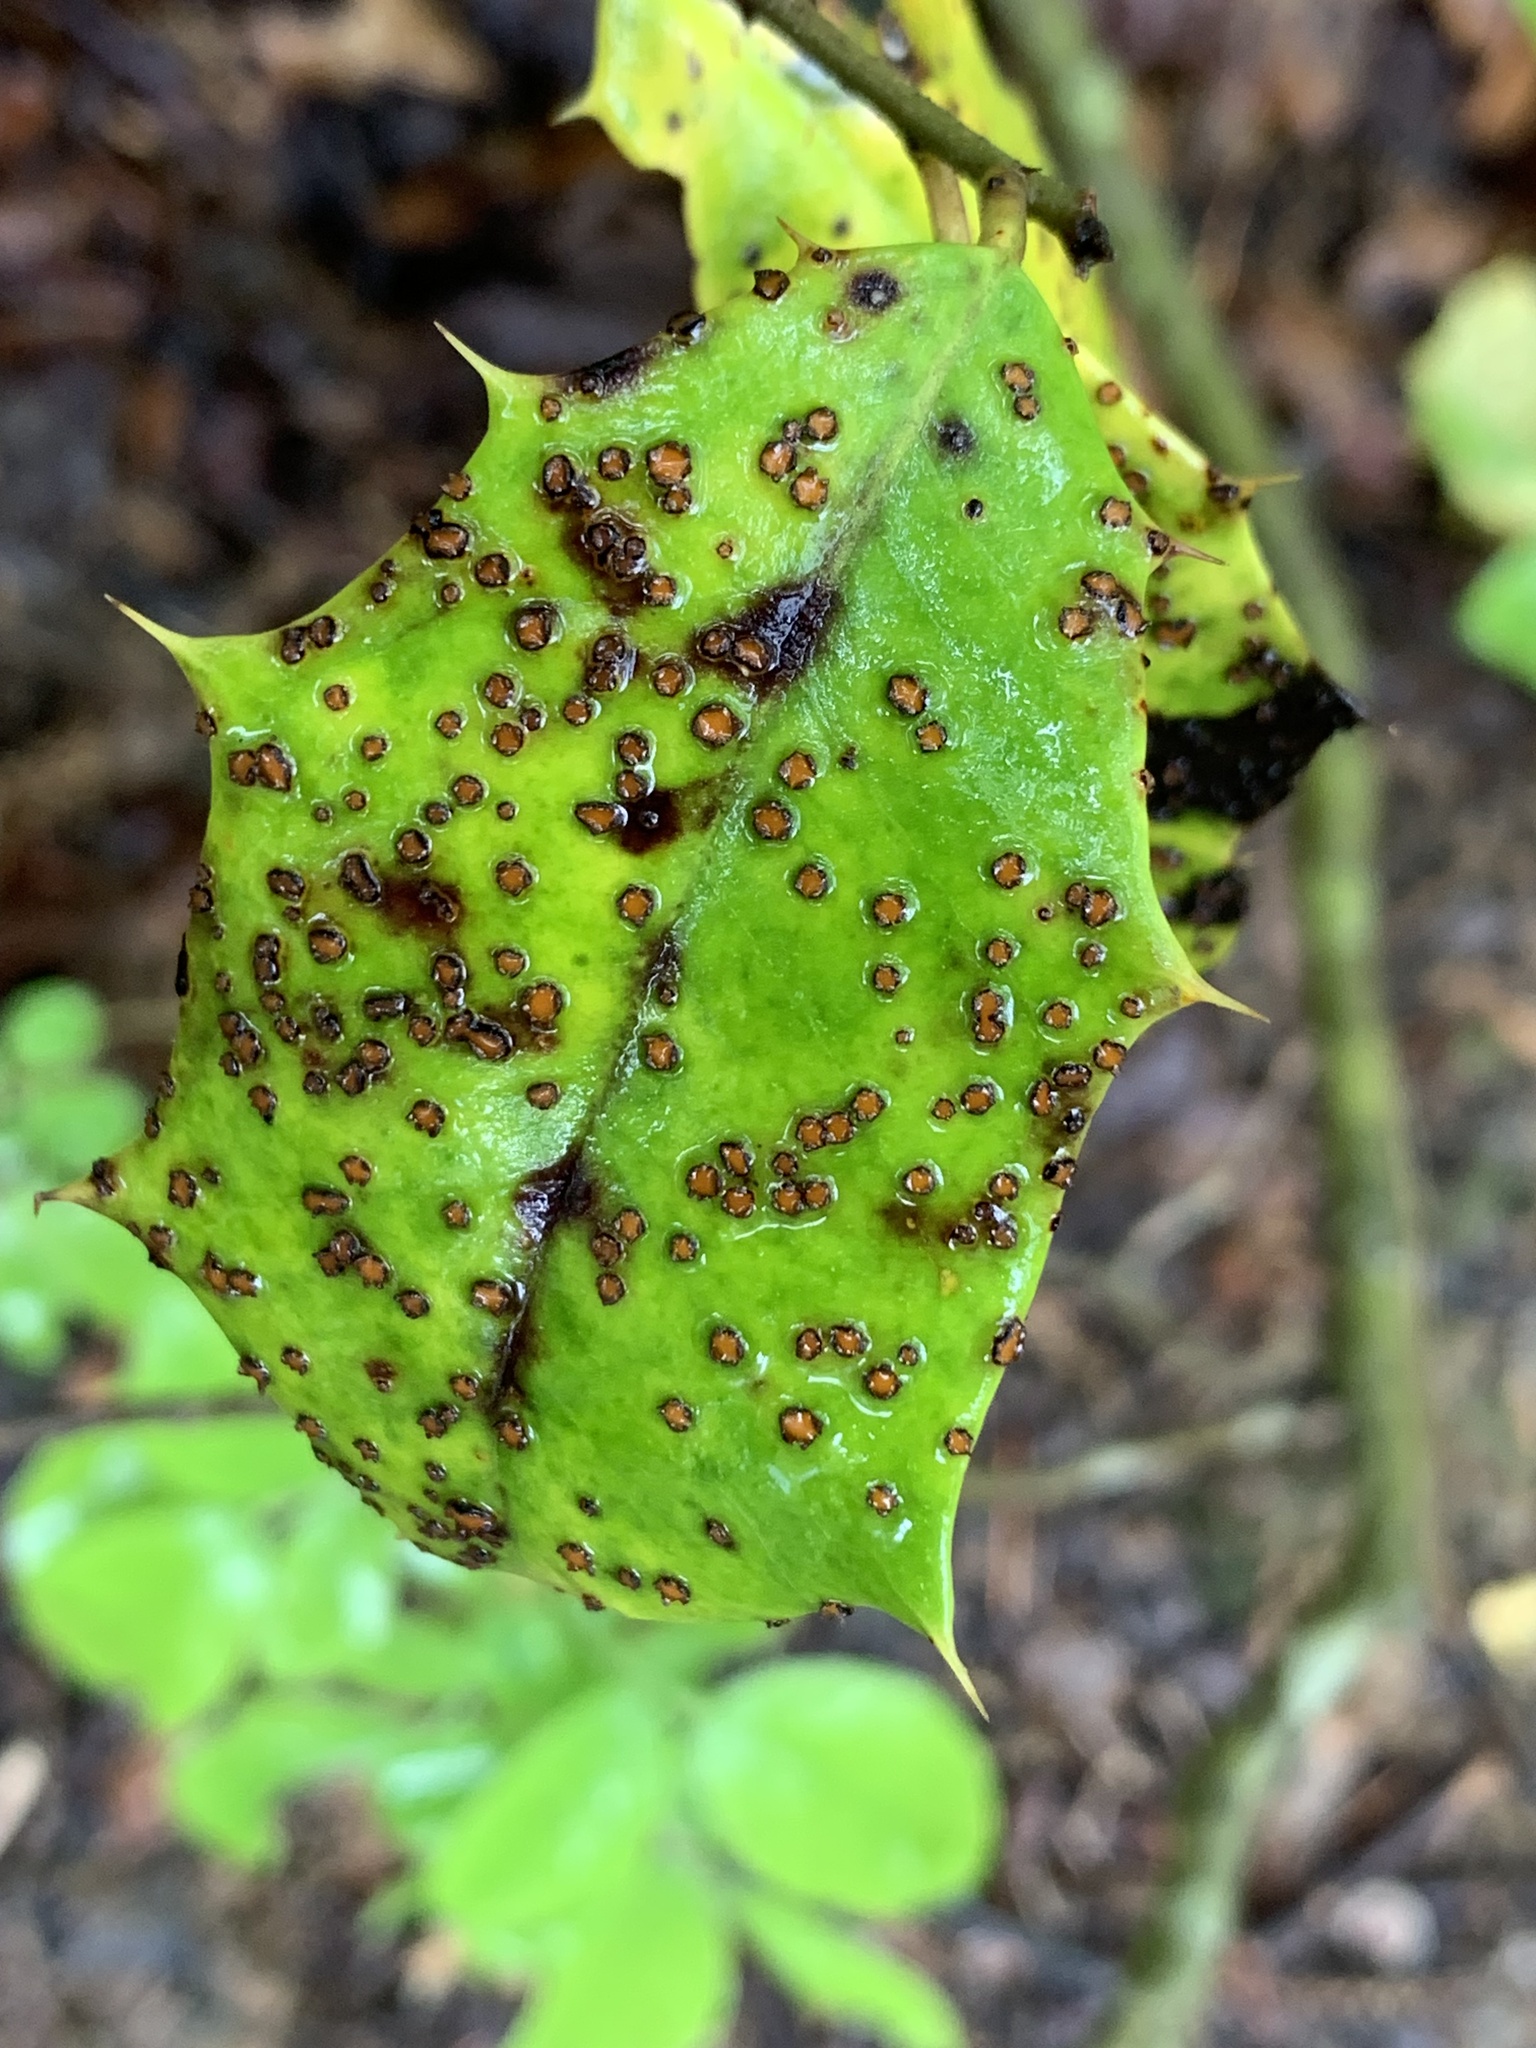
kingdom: Fungi
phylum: Ascomycota
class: Leotiomycetes
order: Rhytismatales
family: Rhytismataceae
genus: Macroderma
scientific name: Macroderma curtisii
